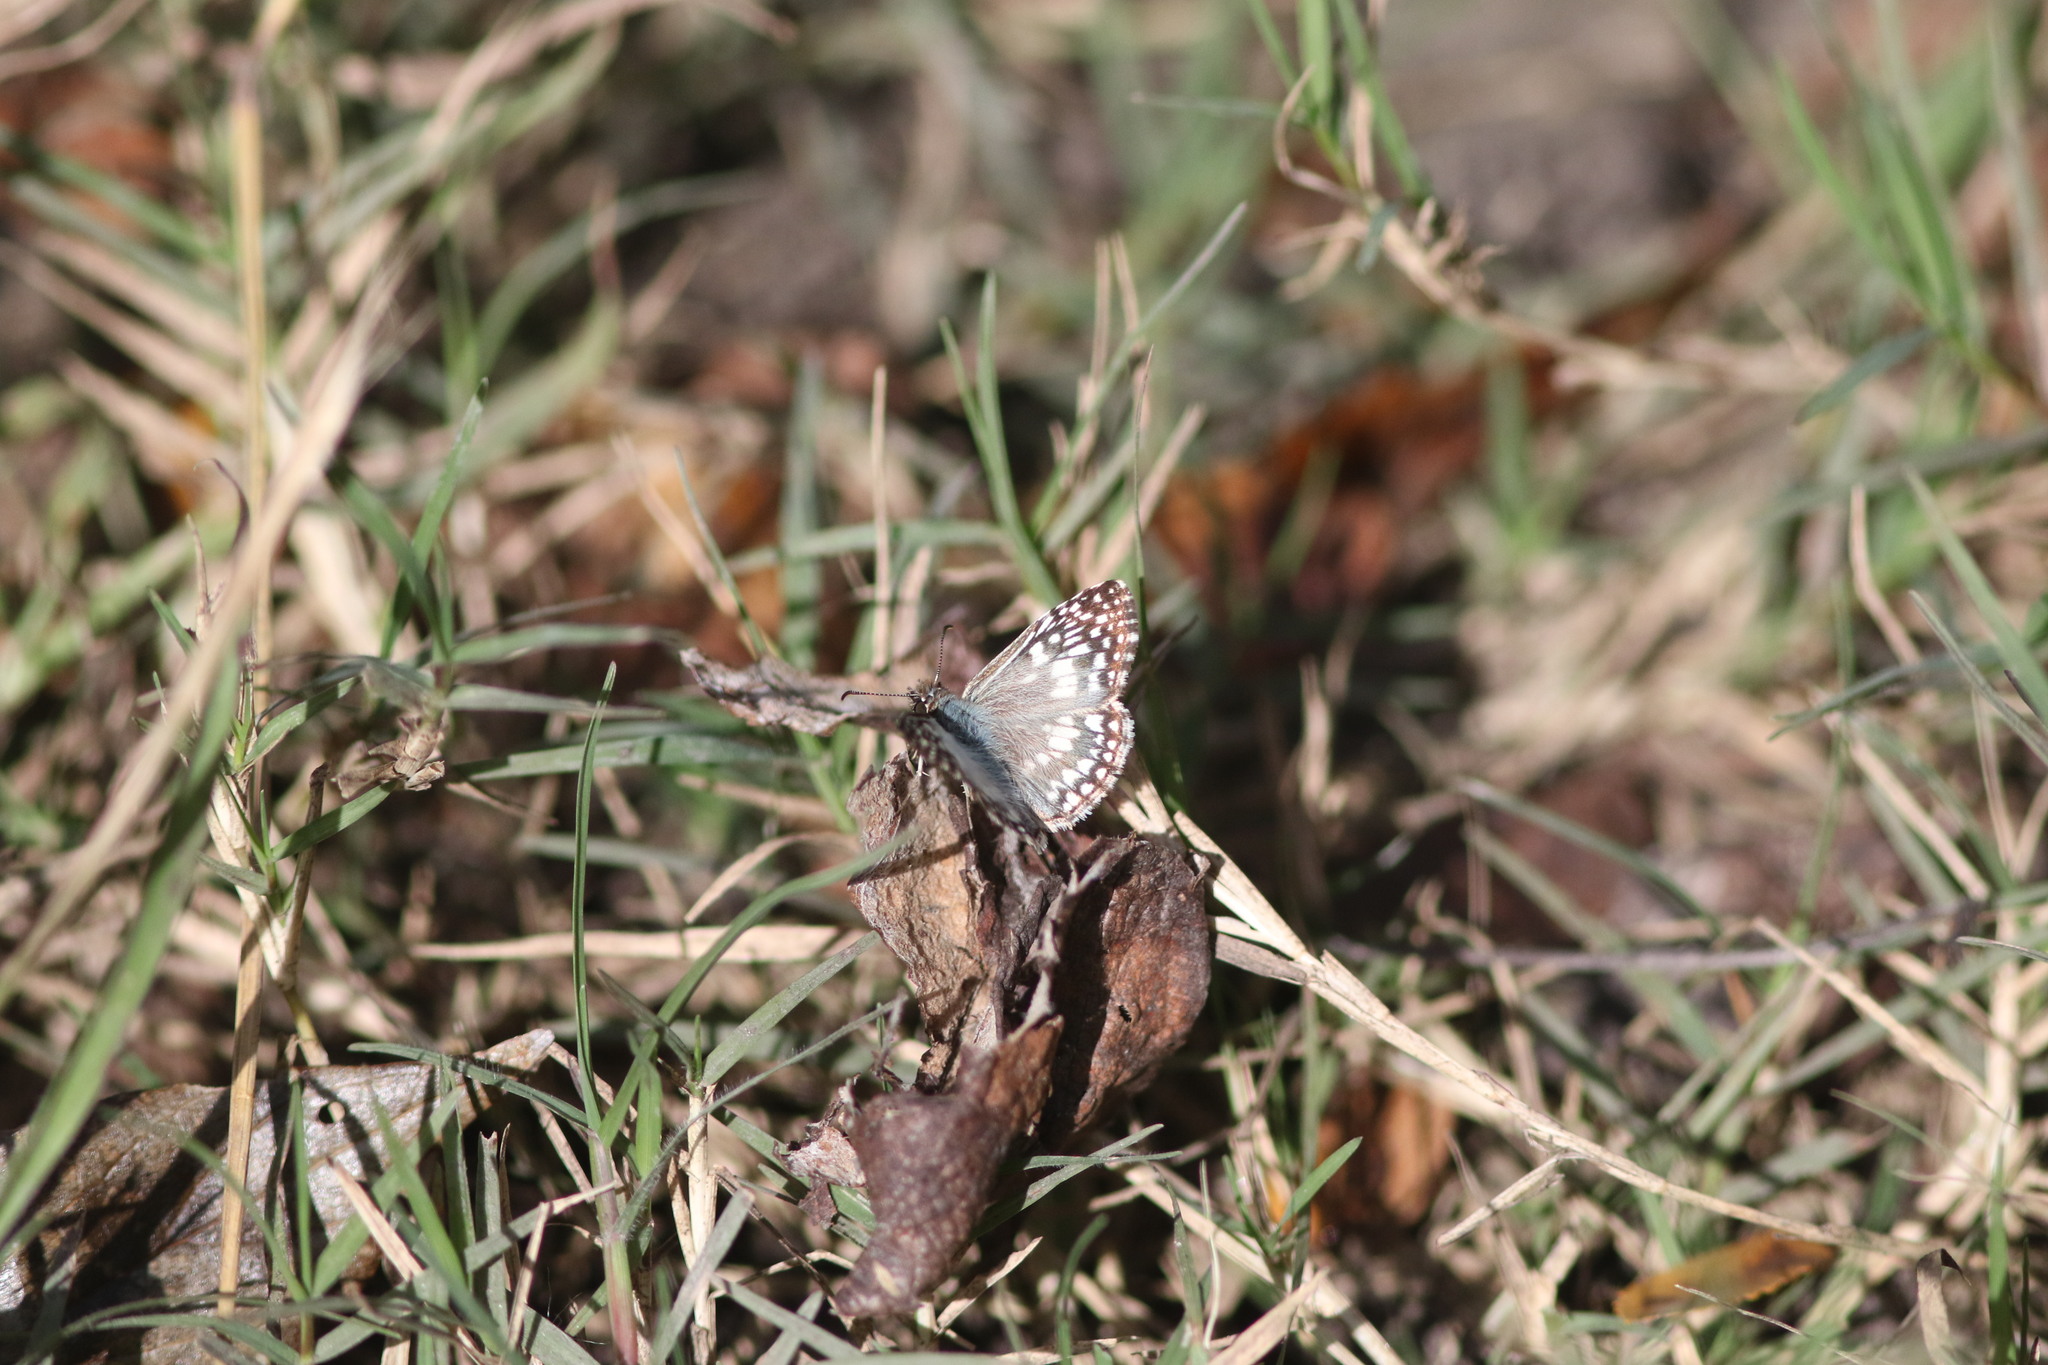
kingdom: Animalia
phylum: Arthropoda
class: Insecta
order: Lepidoptera
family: Hesperiidae
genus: Pyrgus
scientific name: Pyrgus oileus
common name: Tropical checkered-skipper
